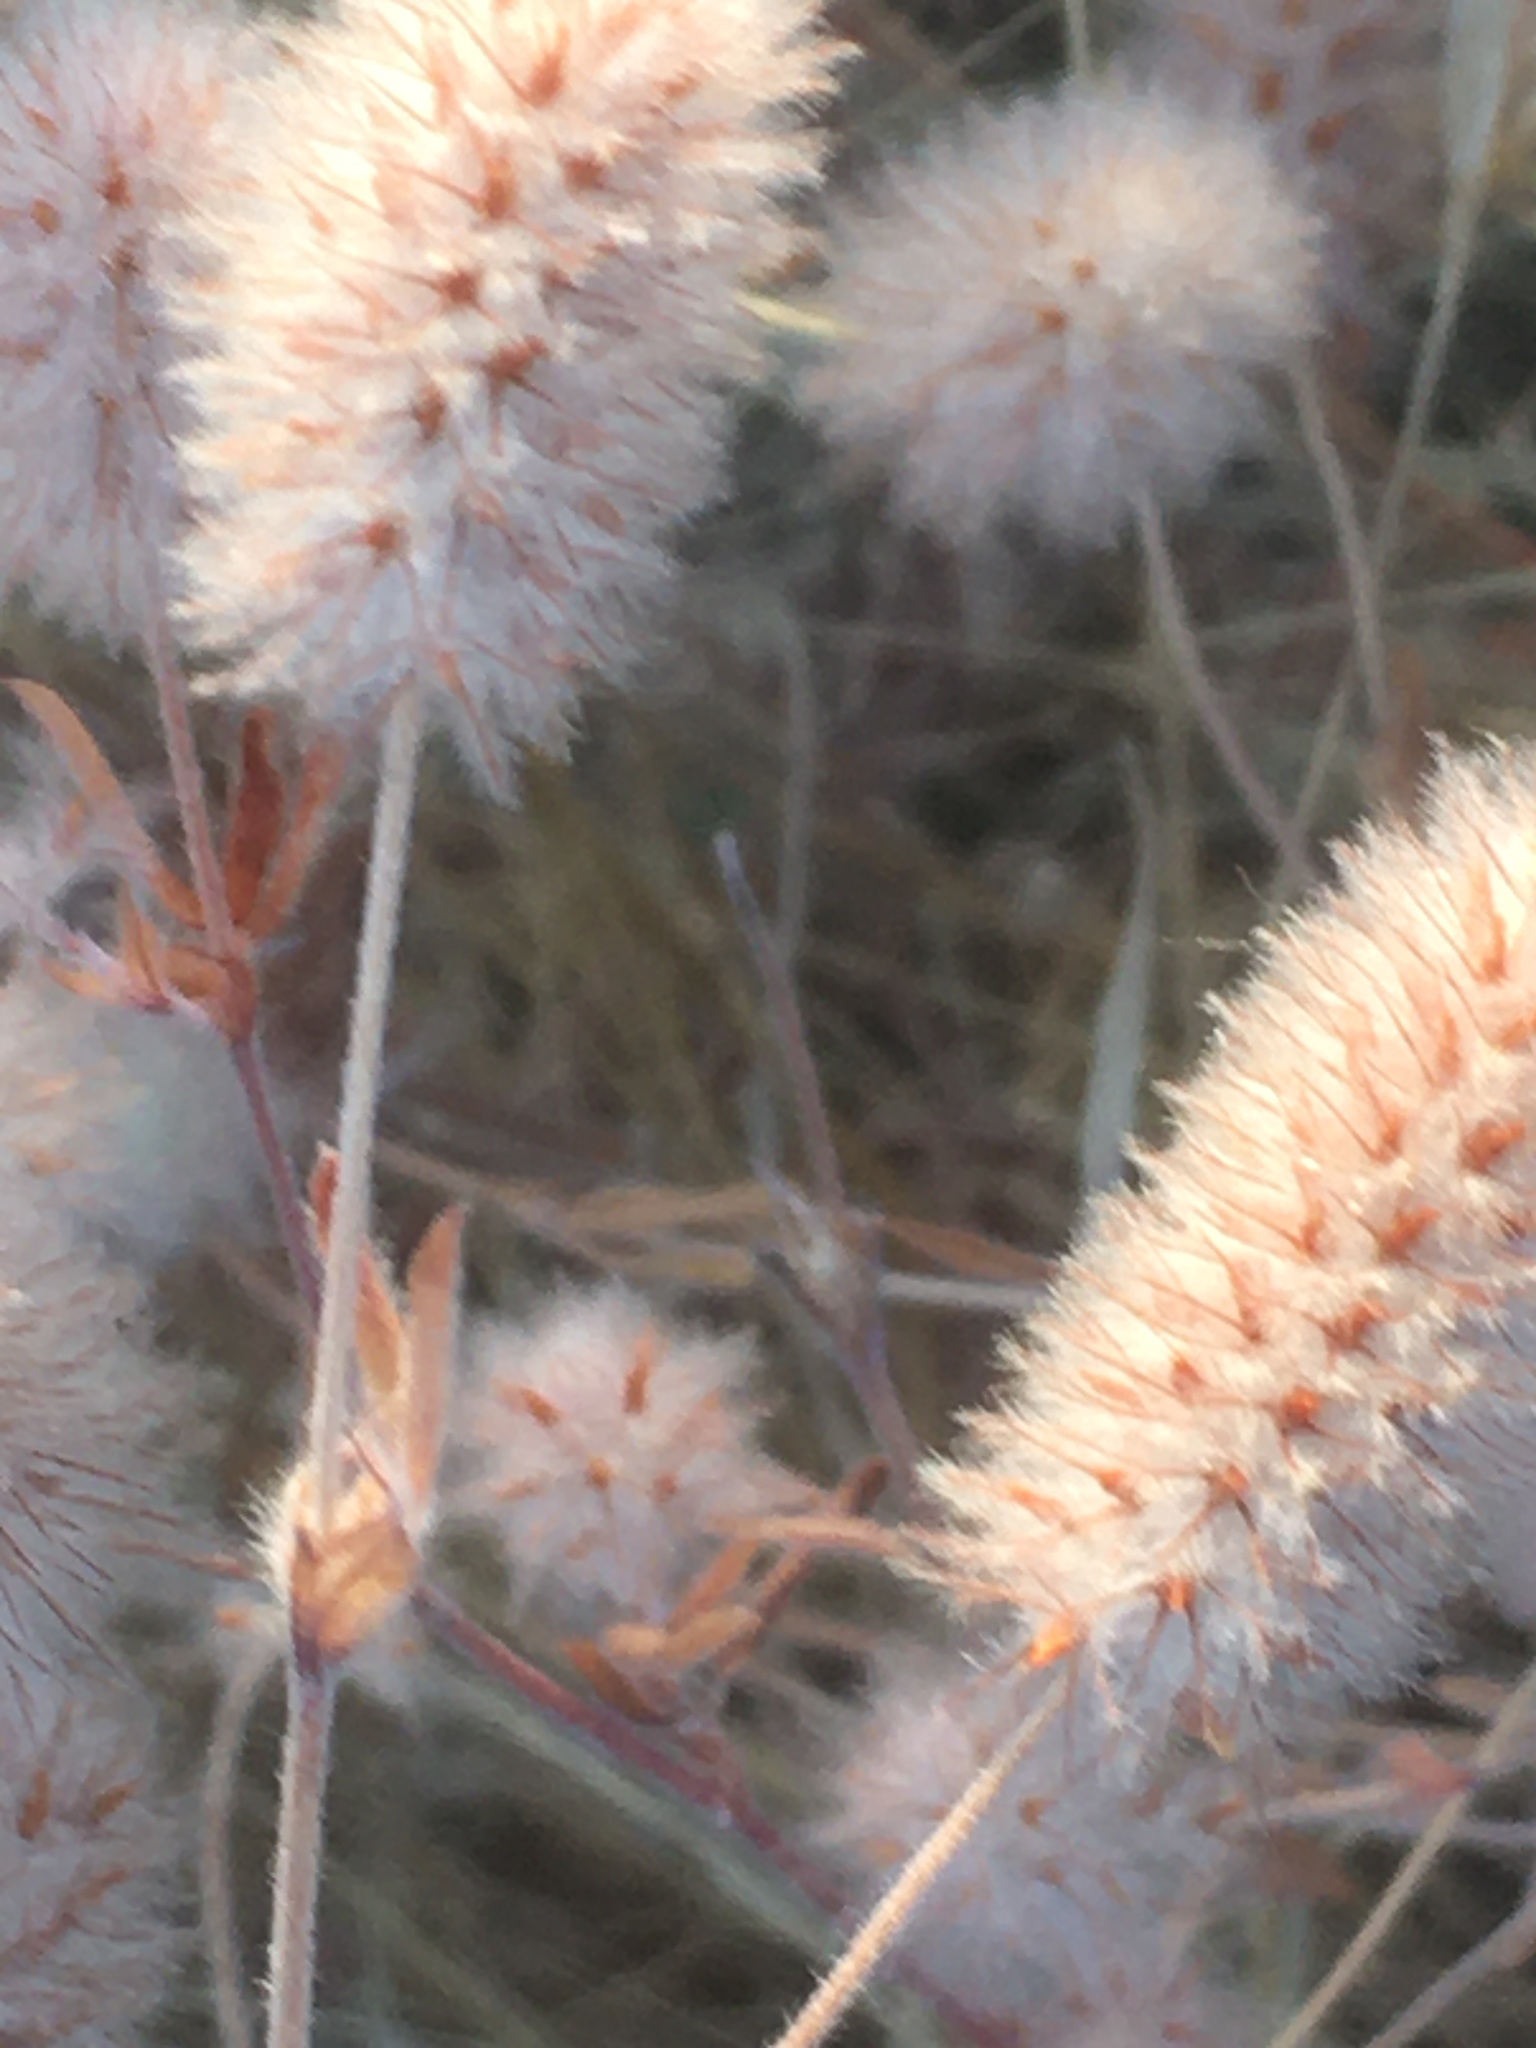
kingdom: Plantae
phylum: Tracheophyta
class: Magnoliopsida
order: Fabales
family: Fabaceae
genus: Trifolium
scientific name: Trifolium arvense
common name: Hare's-foot clover
